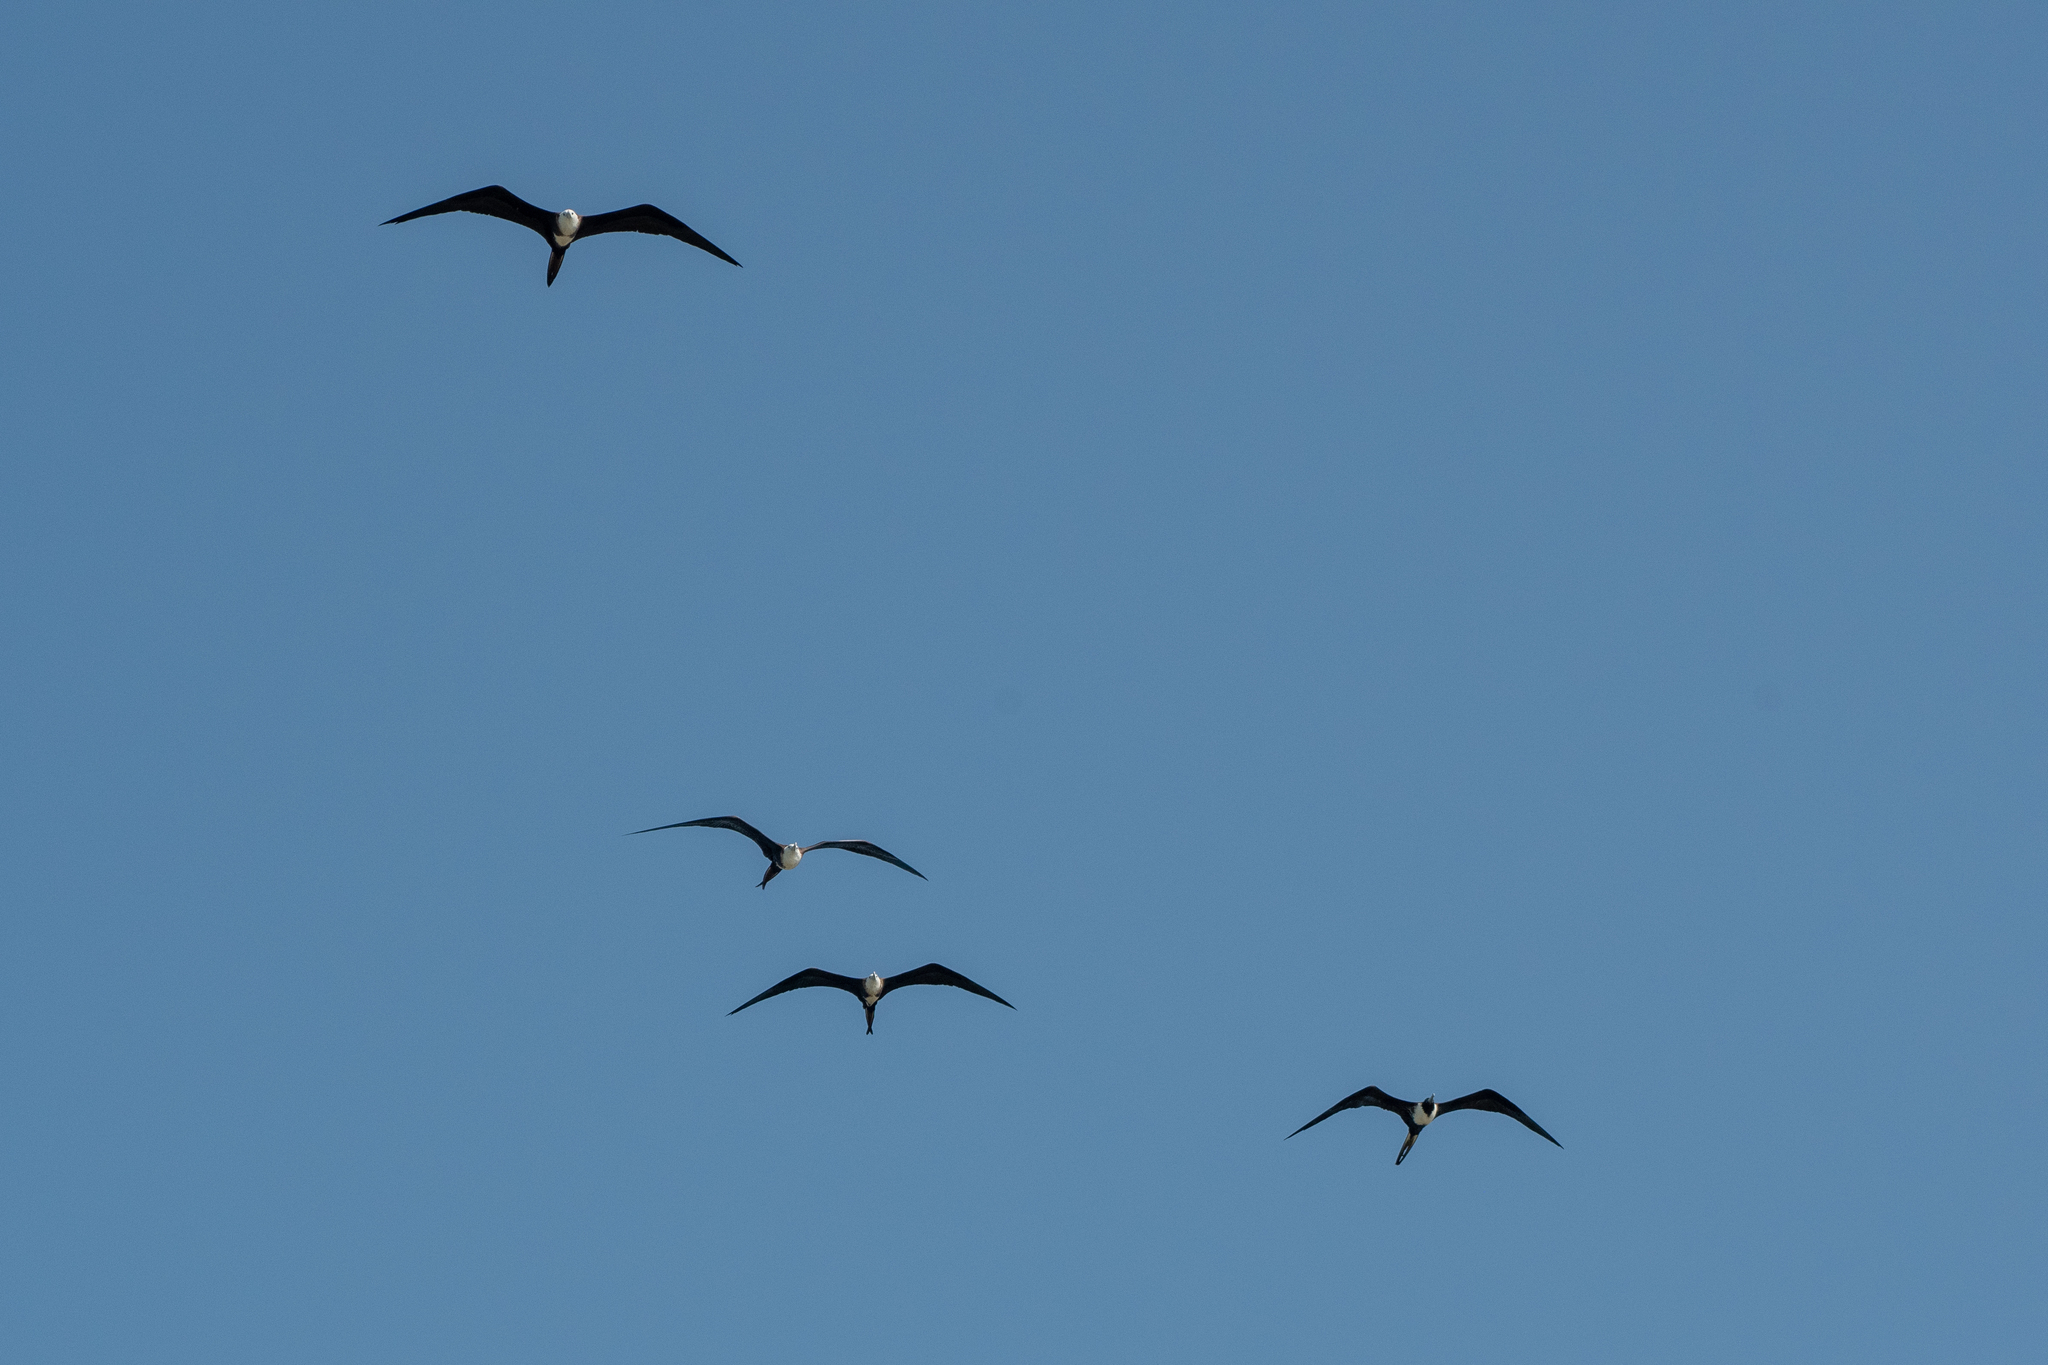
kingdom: Animalia
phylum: Chordata
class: Aves
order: Suliformes
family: Fregatidae
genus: Fregata
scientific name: Fregata magnificens
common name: Magnificent frigatebird
